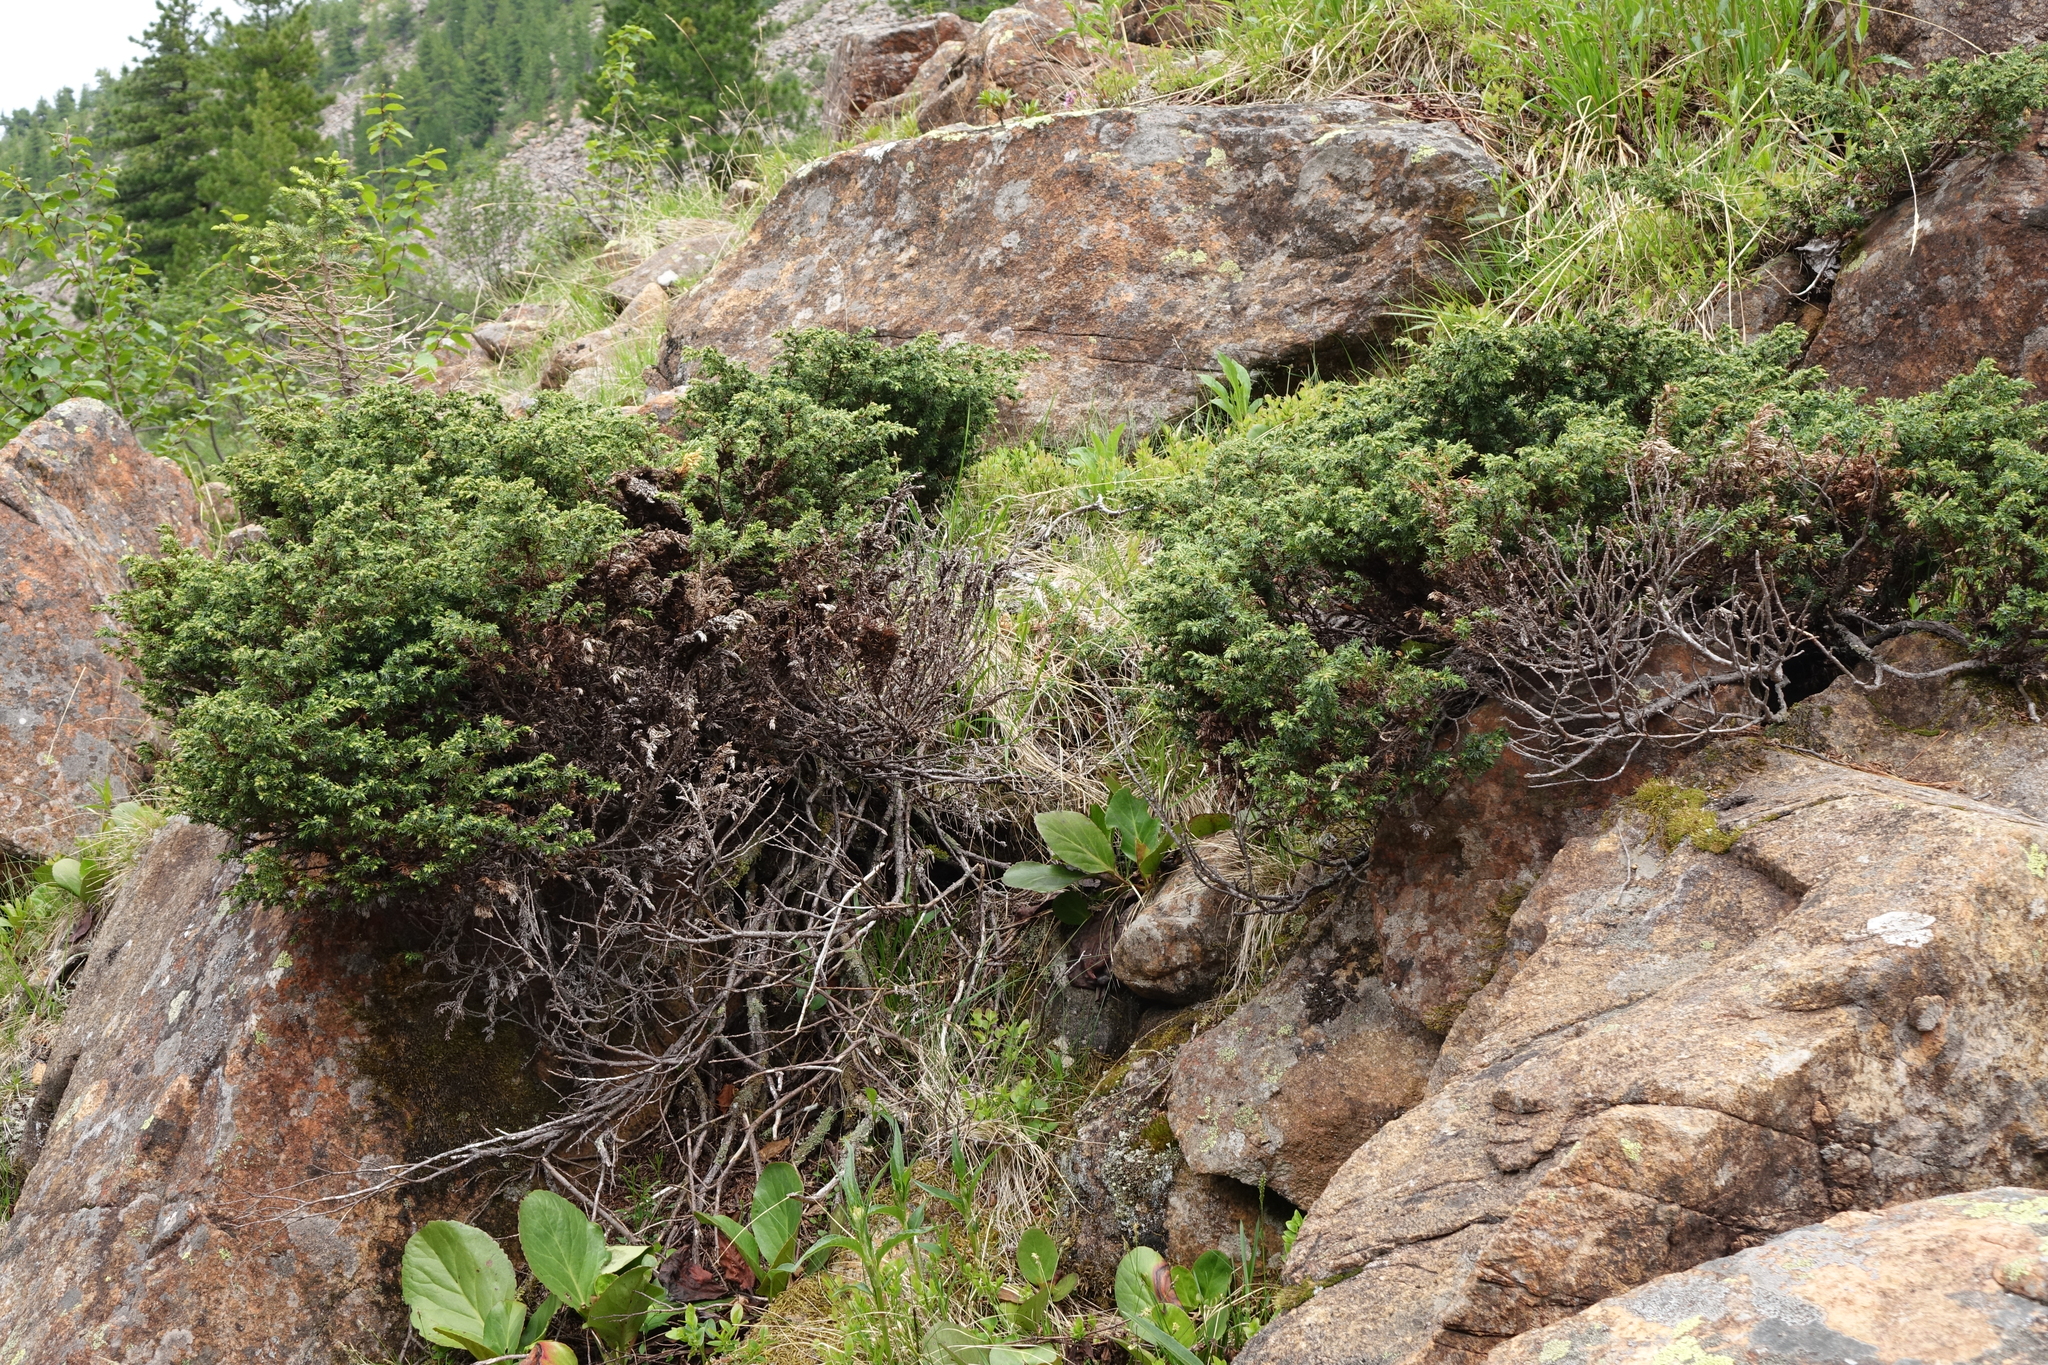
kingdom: Plantae
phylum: Tracheophyta
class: Pinopsida
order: Pinales
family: Cupressaceae
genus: Juniperus
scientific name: Juniperus communis
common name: Common juniper
